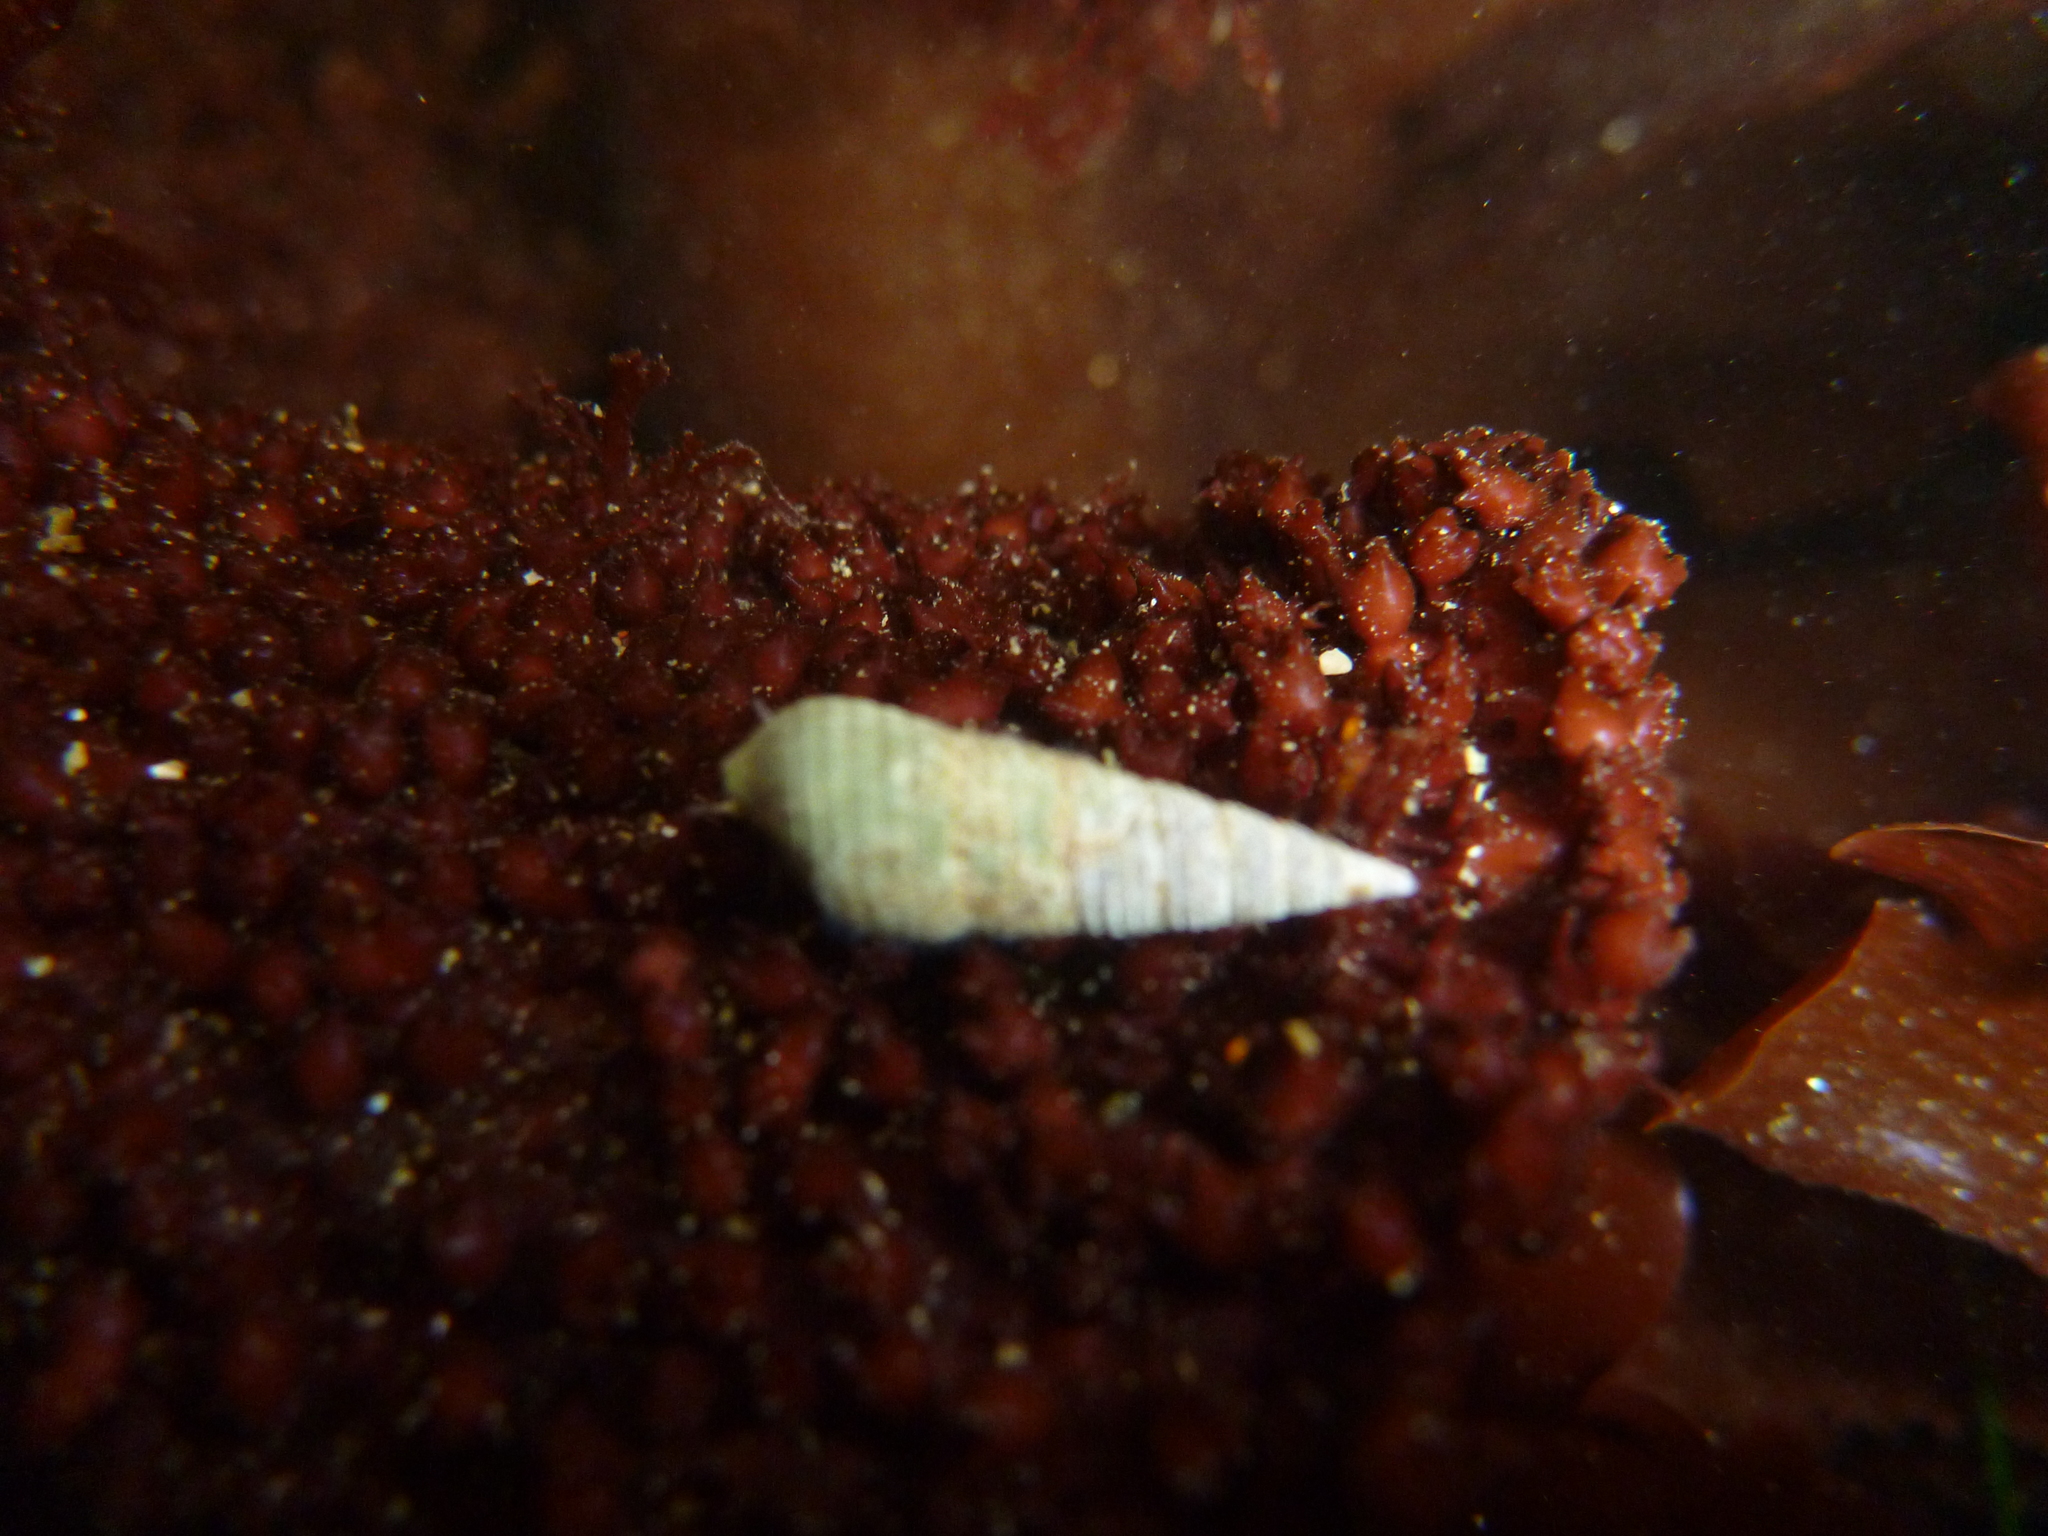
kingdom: Animalia
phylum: Mollusca
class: Gastropoda
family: Cerithiidae
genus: Neostylidium
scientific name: Neostylidium eschrichtii
